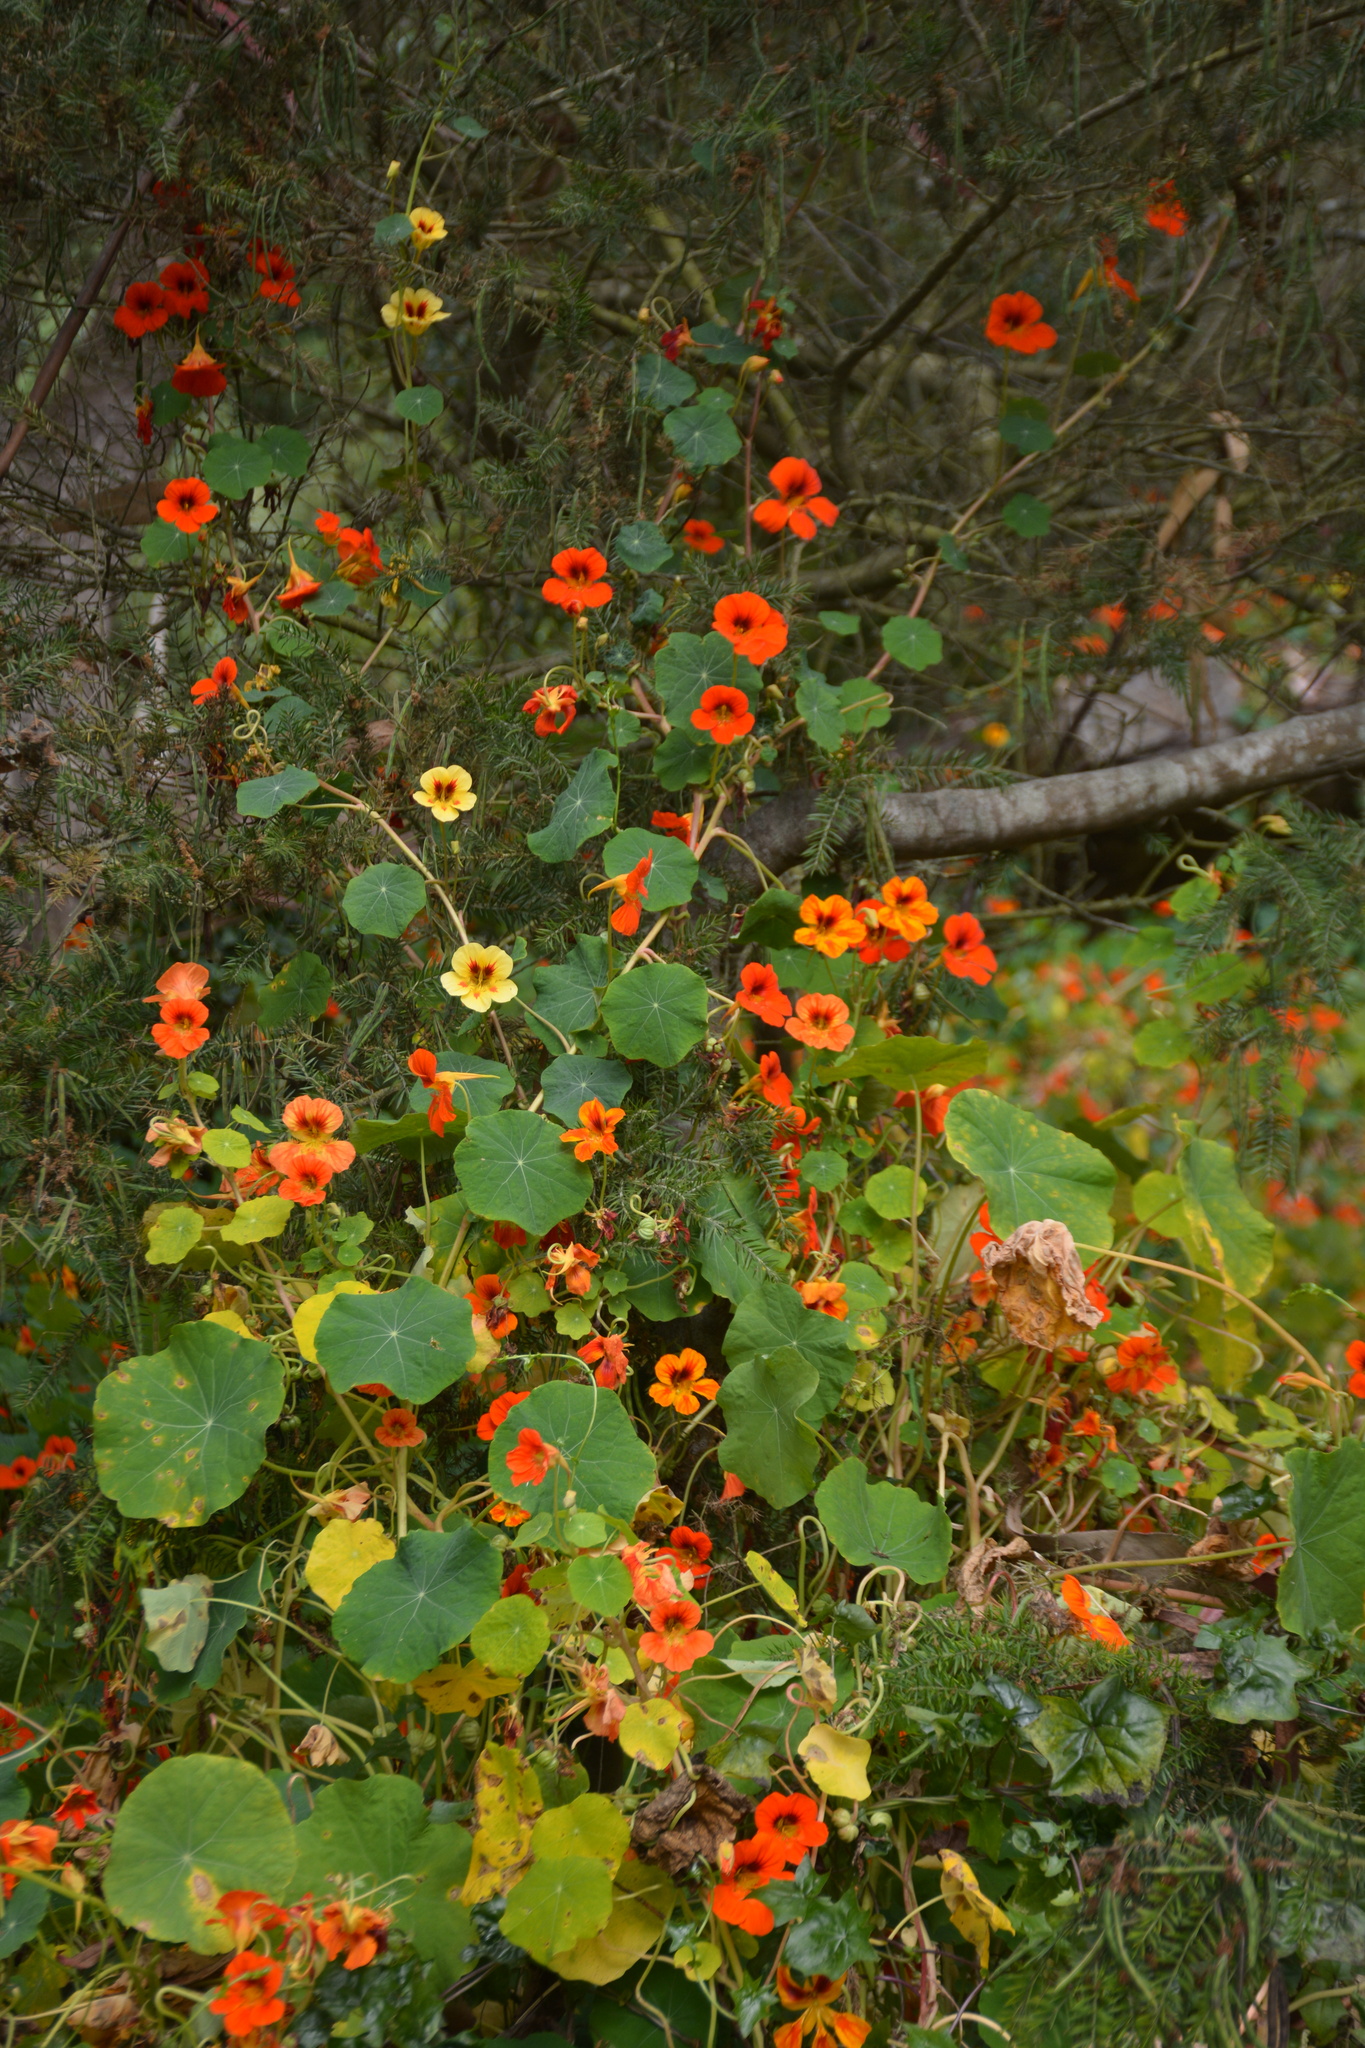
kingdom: Plantae
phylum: Tracheophyta
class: Magnoliopsida
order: Brassicales
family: Tropaeolaceae
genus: Tropaeolum
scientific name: Tropaeolum majus
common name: Nasturtium
